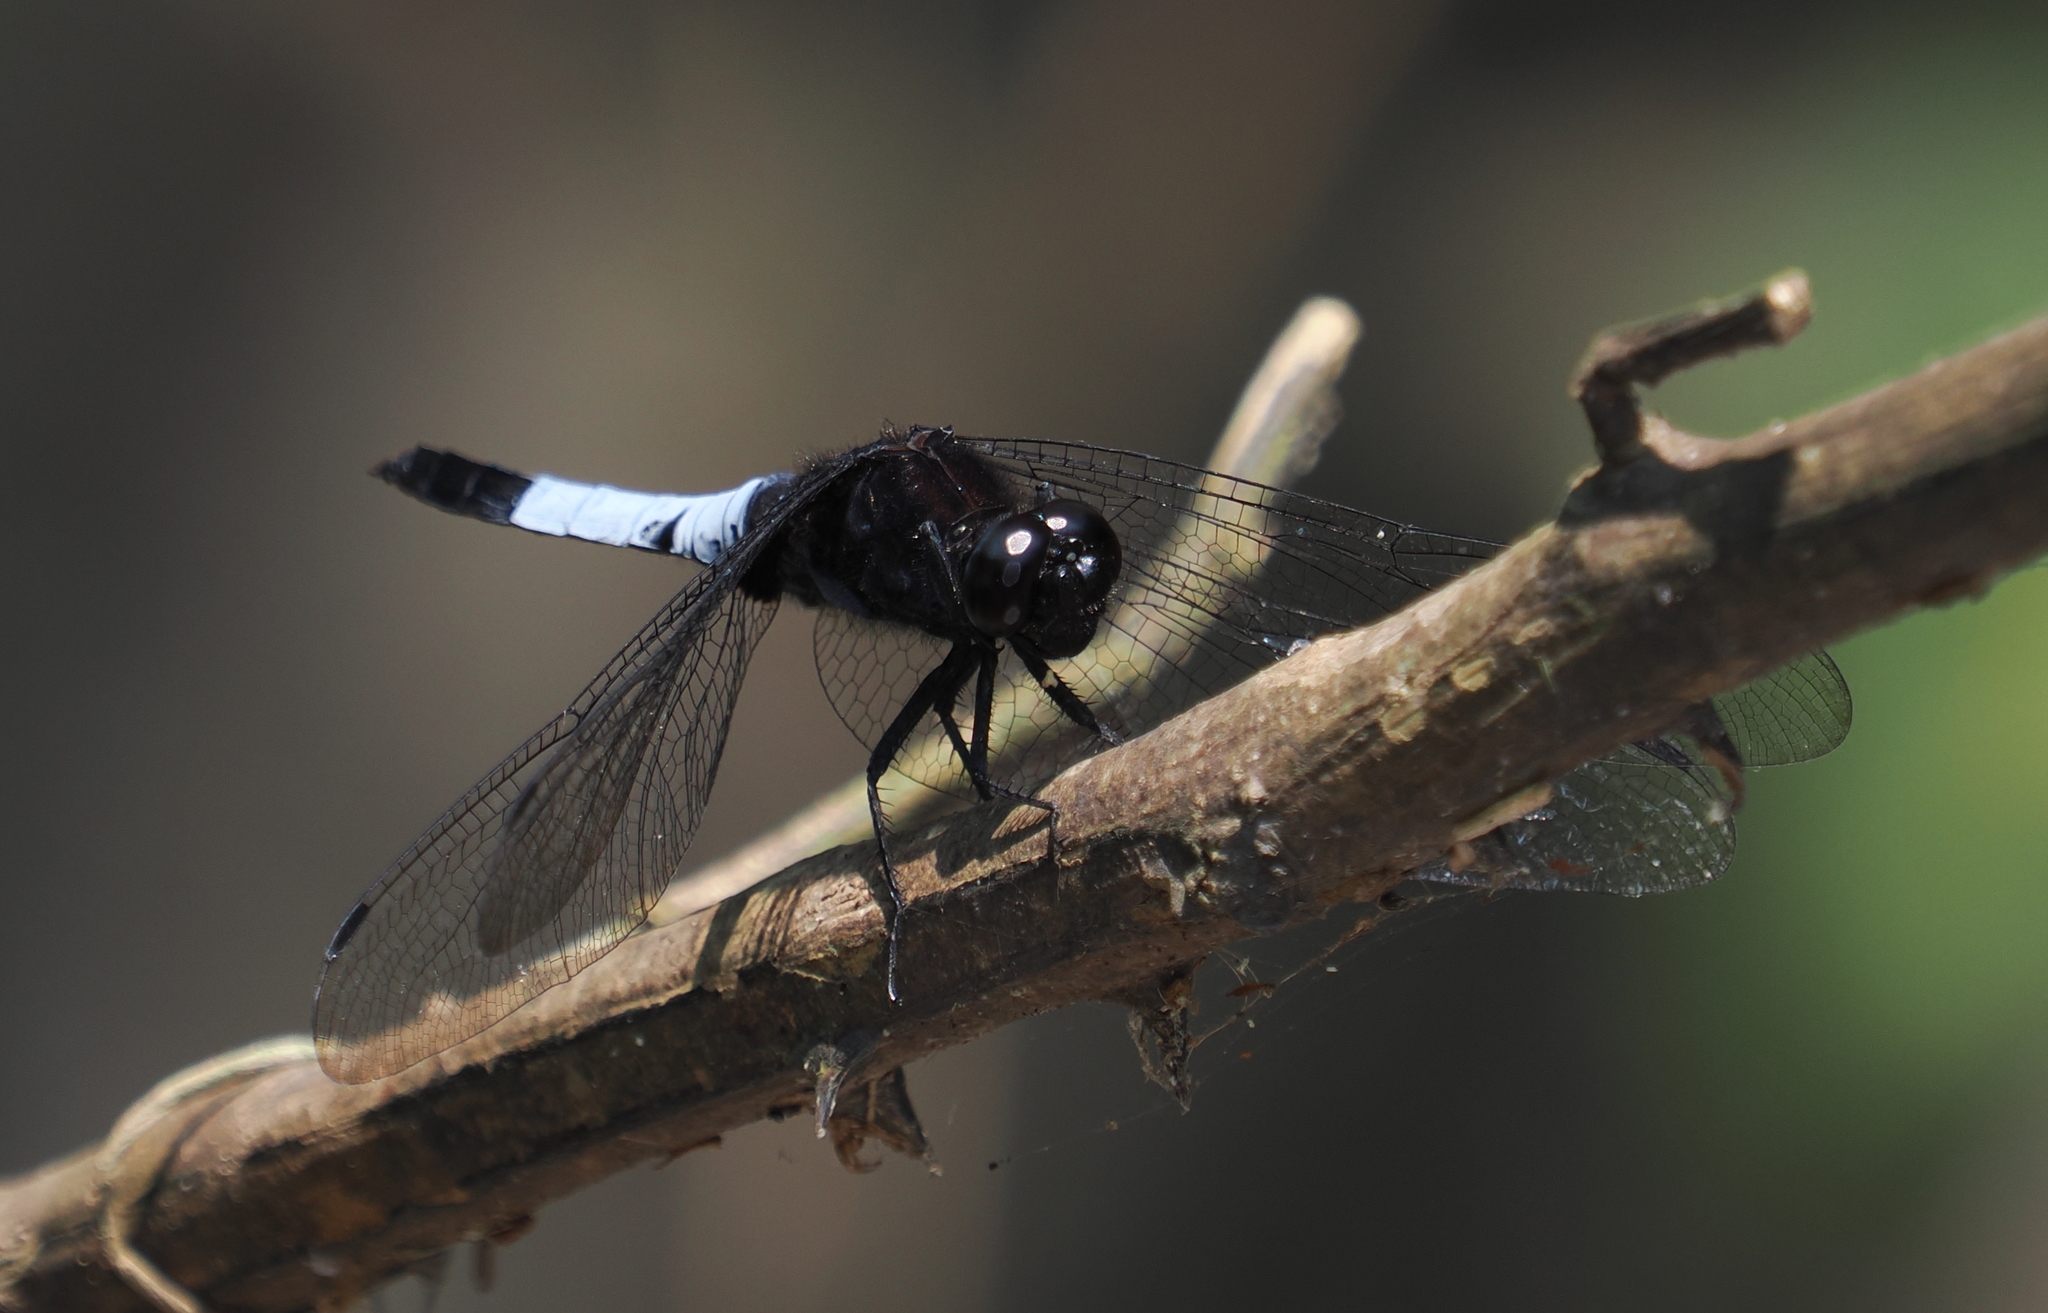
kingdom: Animalia
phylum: Arthropoda
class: Insecta
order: Odonata
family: Libellulidae
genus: Orthetrum
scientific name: Orthetrum triangulare
